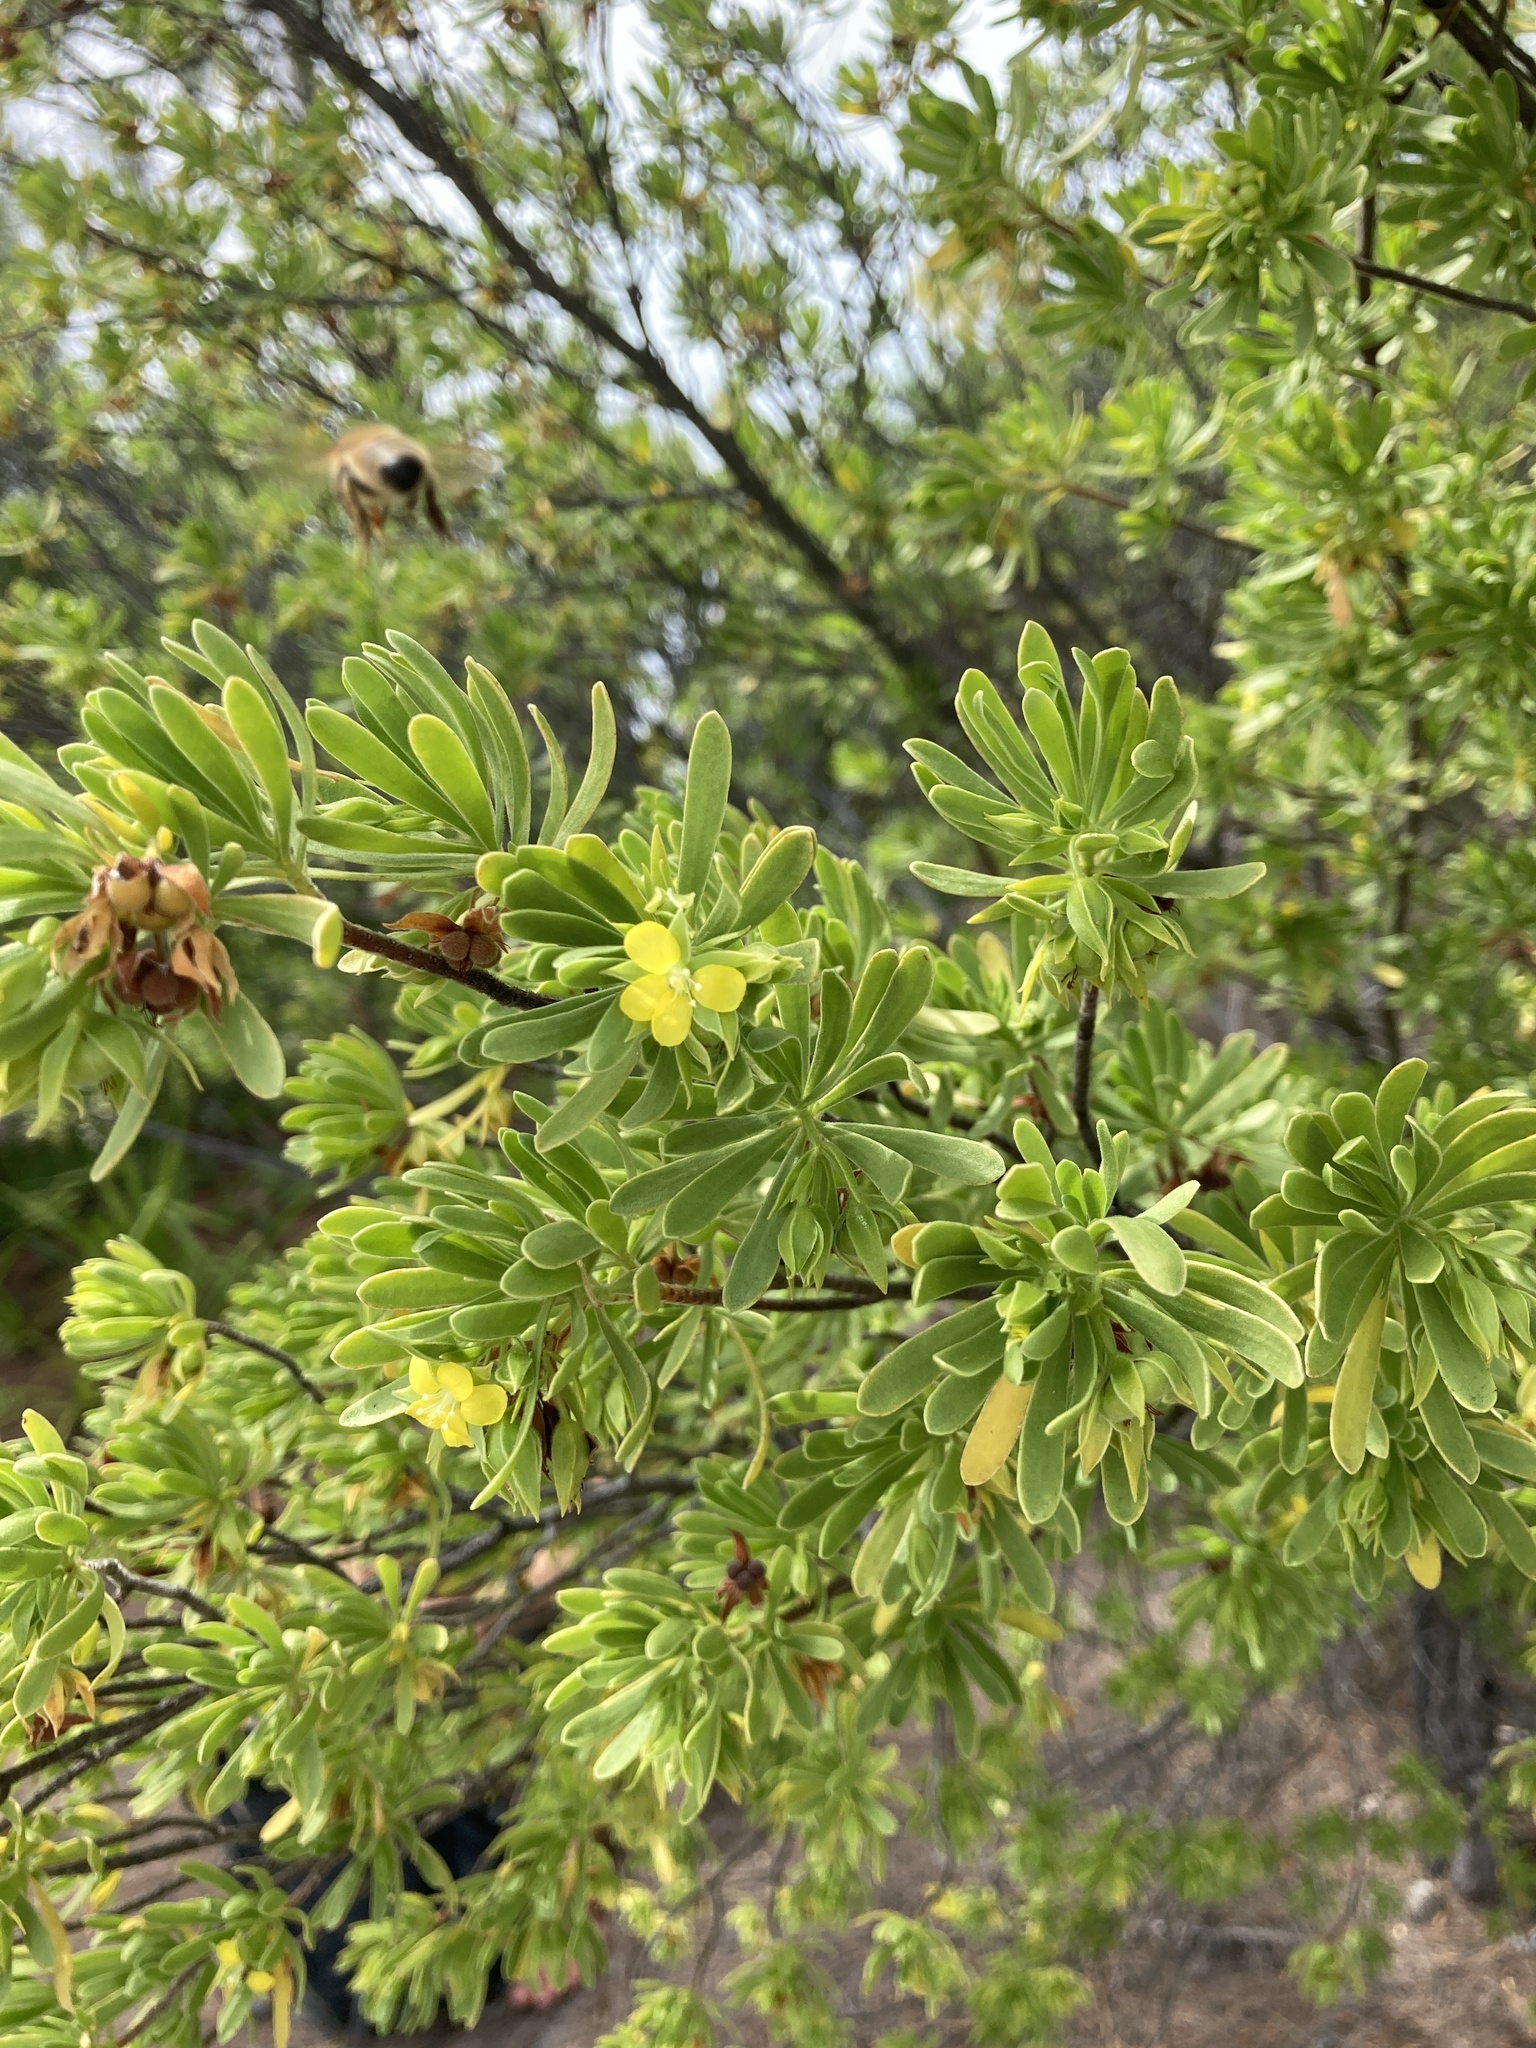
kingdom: Plantae
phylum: Tracheophyta
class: Magnoliopsida
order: Fabales
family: Surianaceae
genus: Suriana
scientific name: Suriana maritima
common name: Bay-cedar
